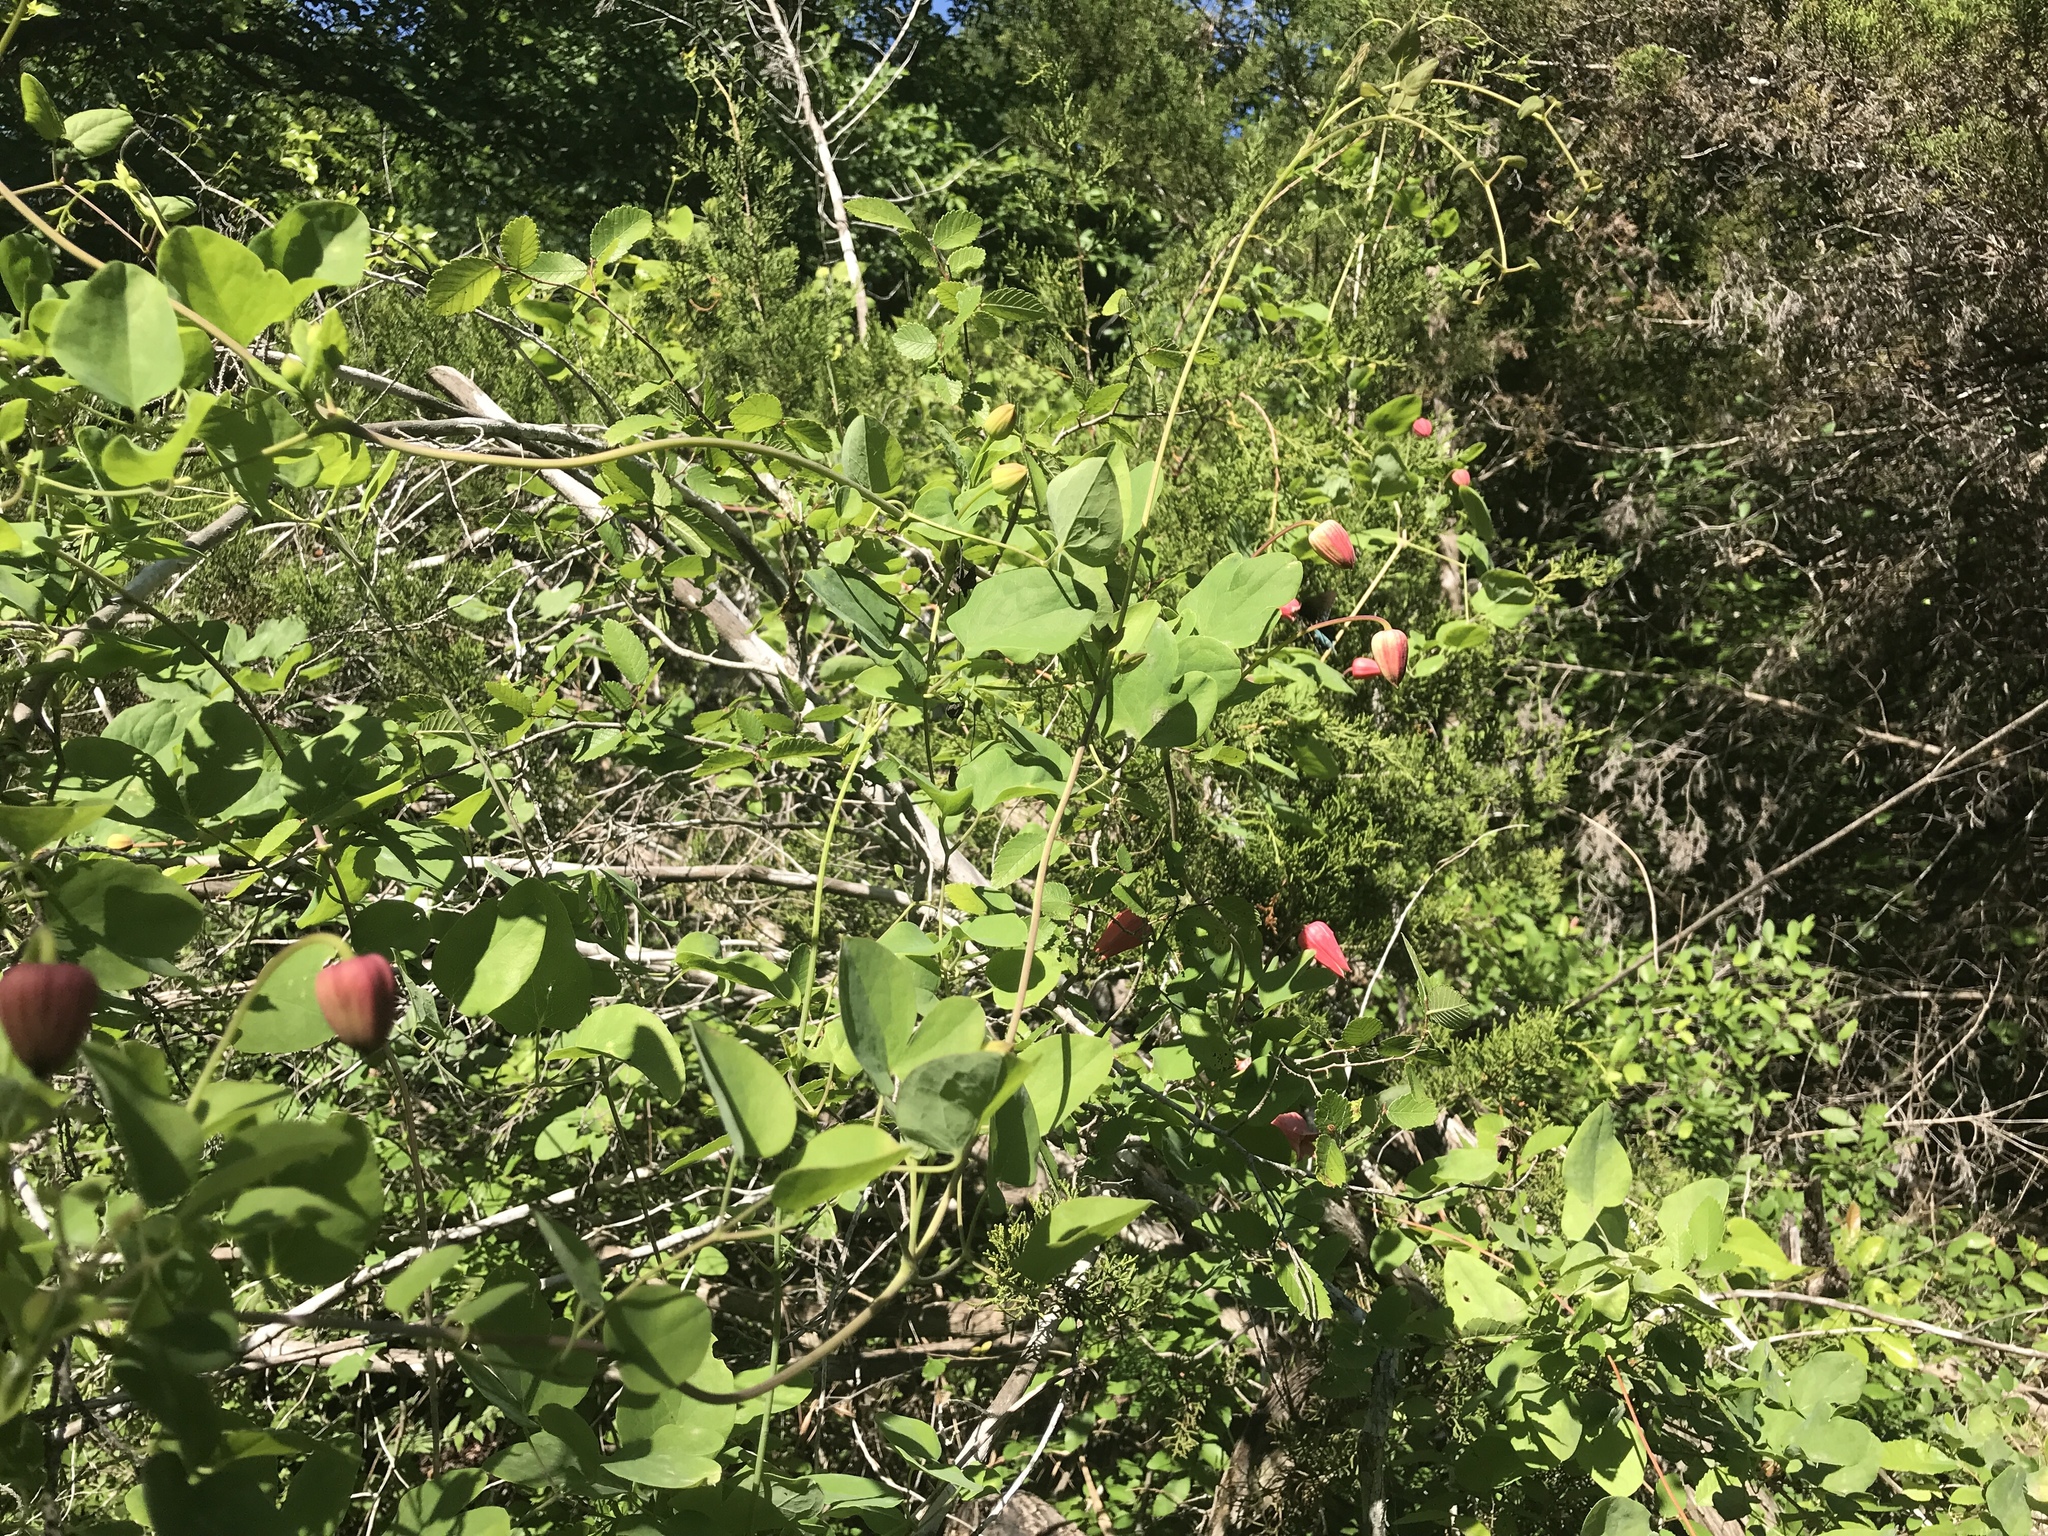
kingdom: Plantae
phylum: Tracheophyta
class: Magnoliopsida
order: Ranunculales
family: Ranunculaceae
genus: Clematis
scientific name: Clematis texensis
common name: Crimson clematis
